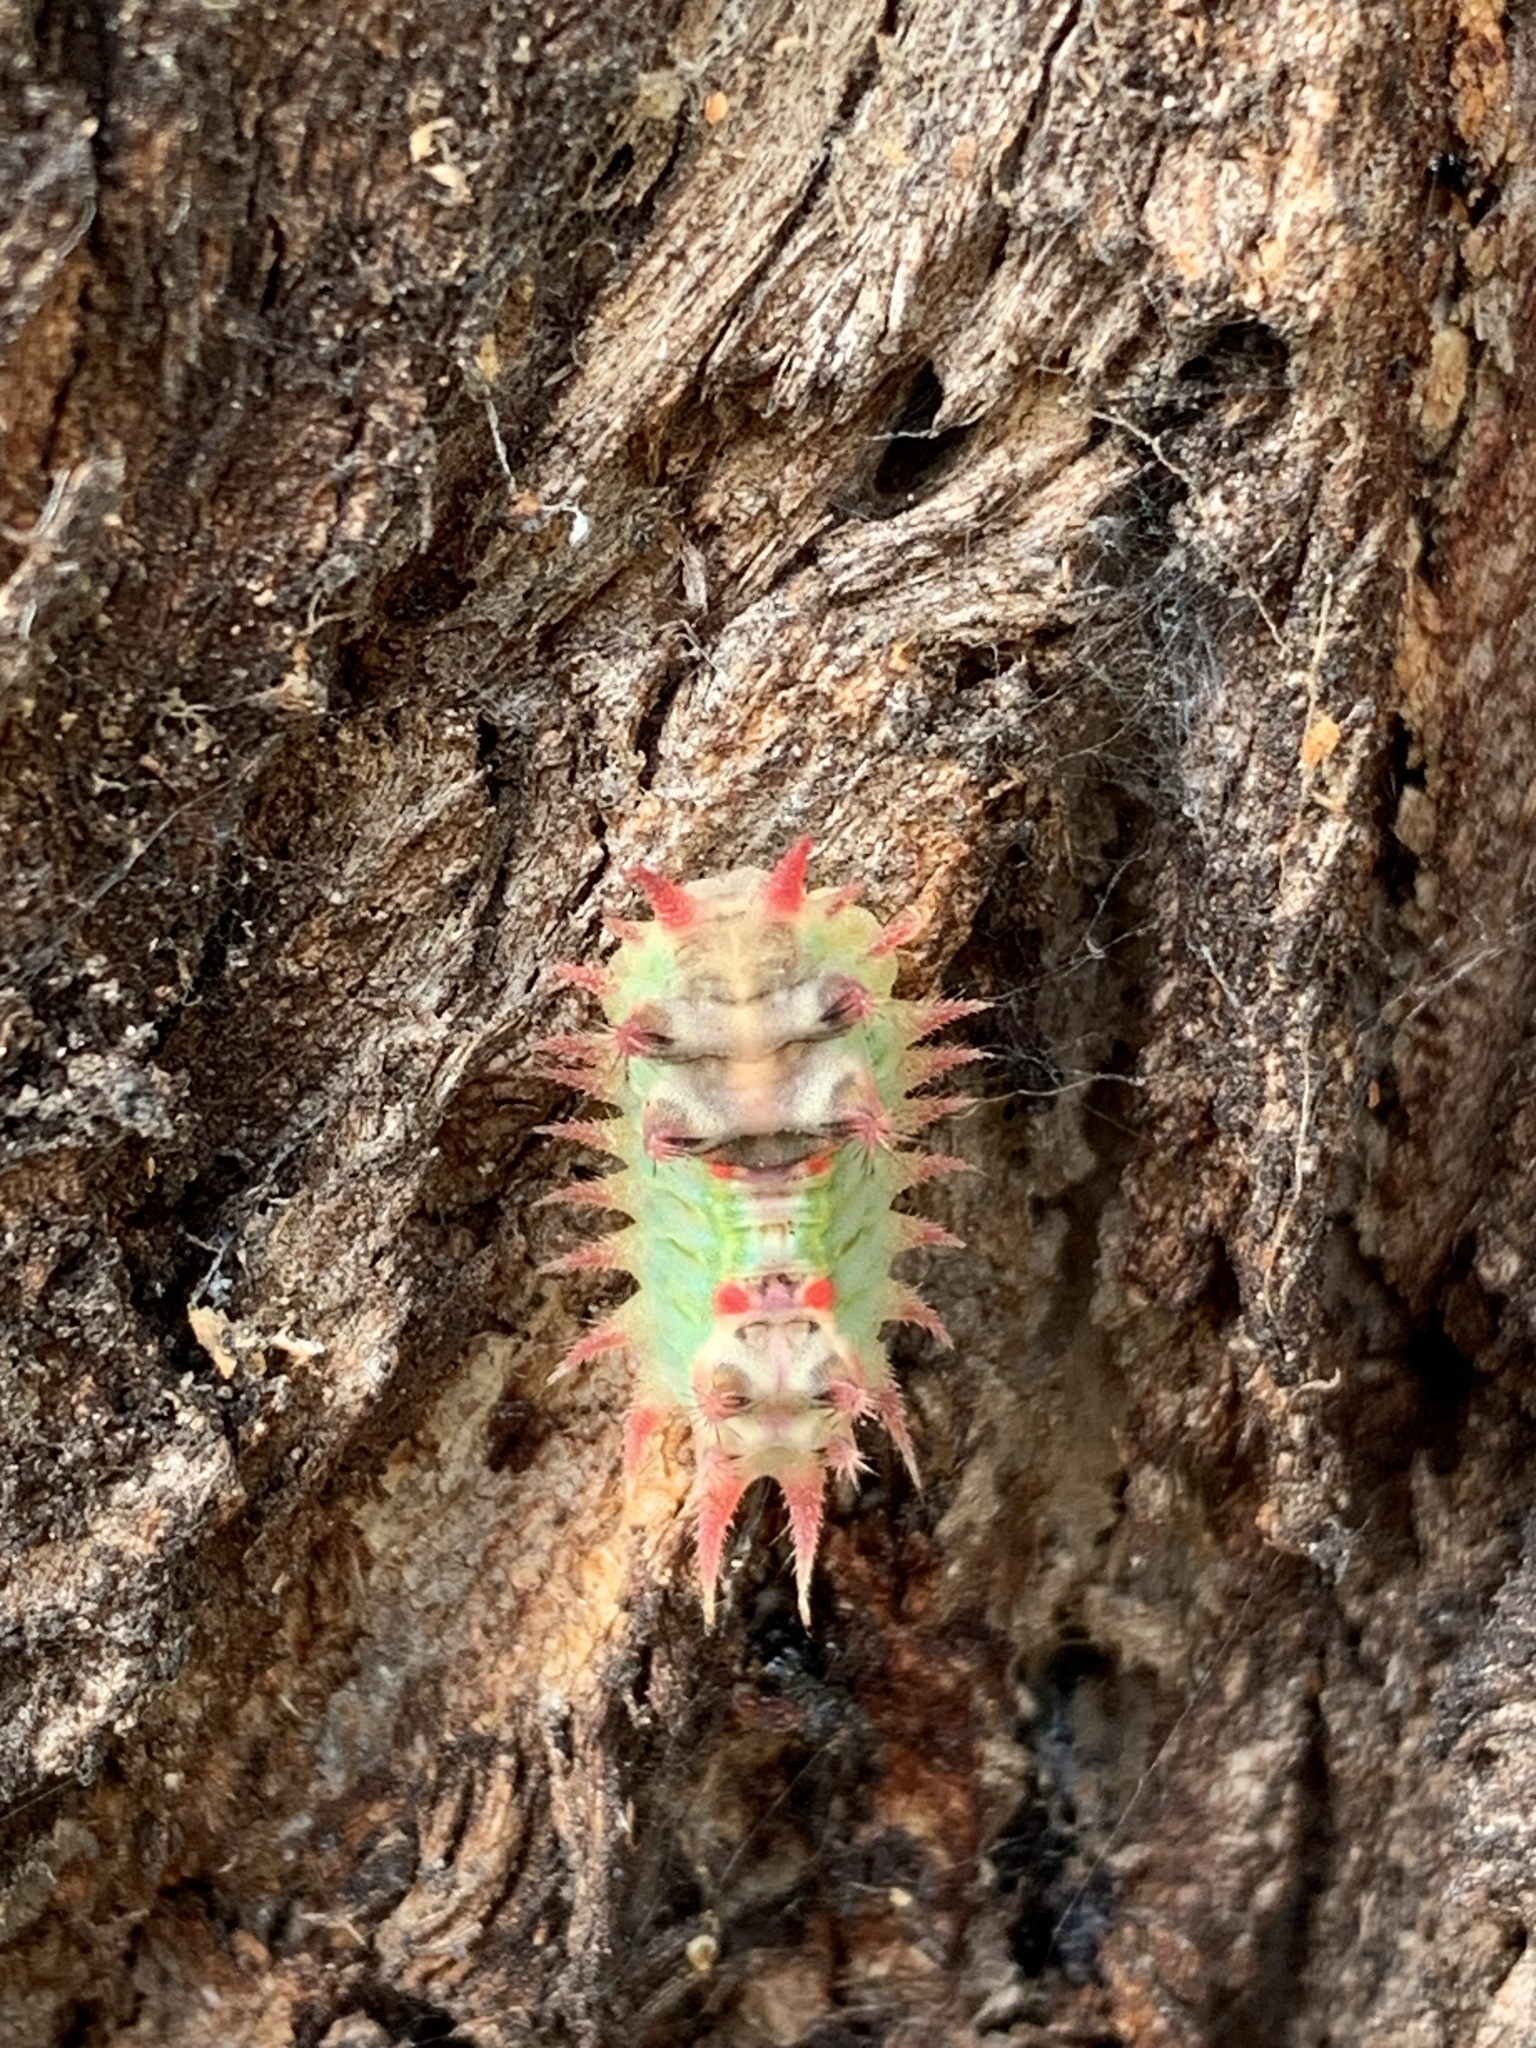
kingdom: Animalia
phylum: Arthropoda
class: Insecta
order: Lepidoptera
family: Limacodidae
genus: Doratifera
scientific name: Doratifera oxleyi
